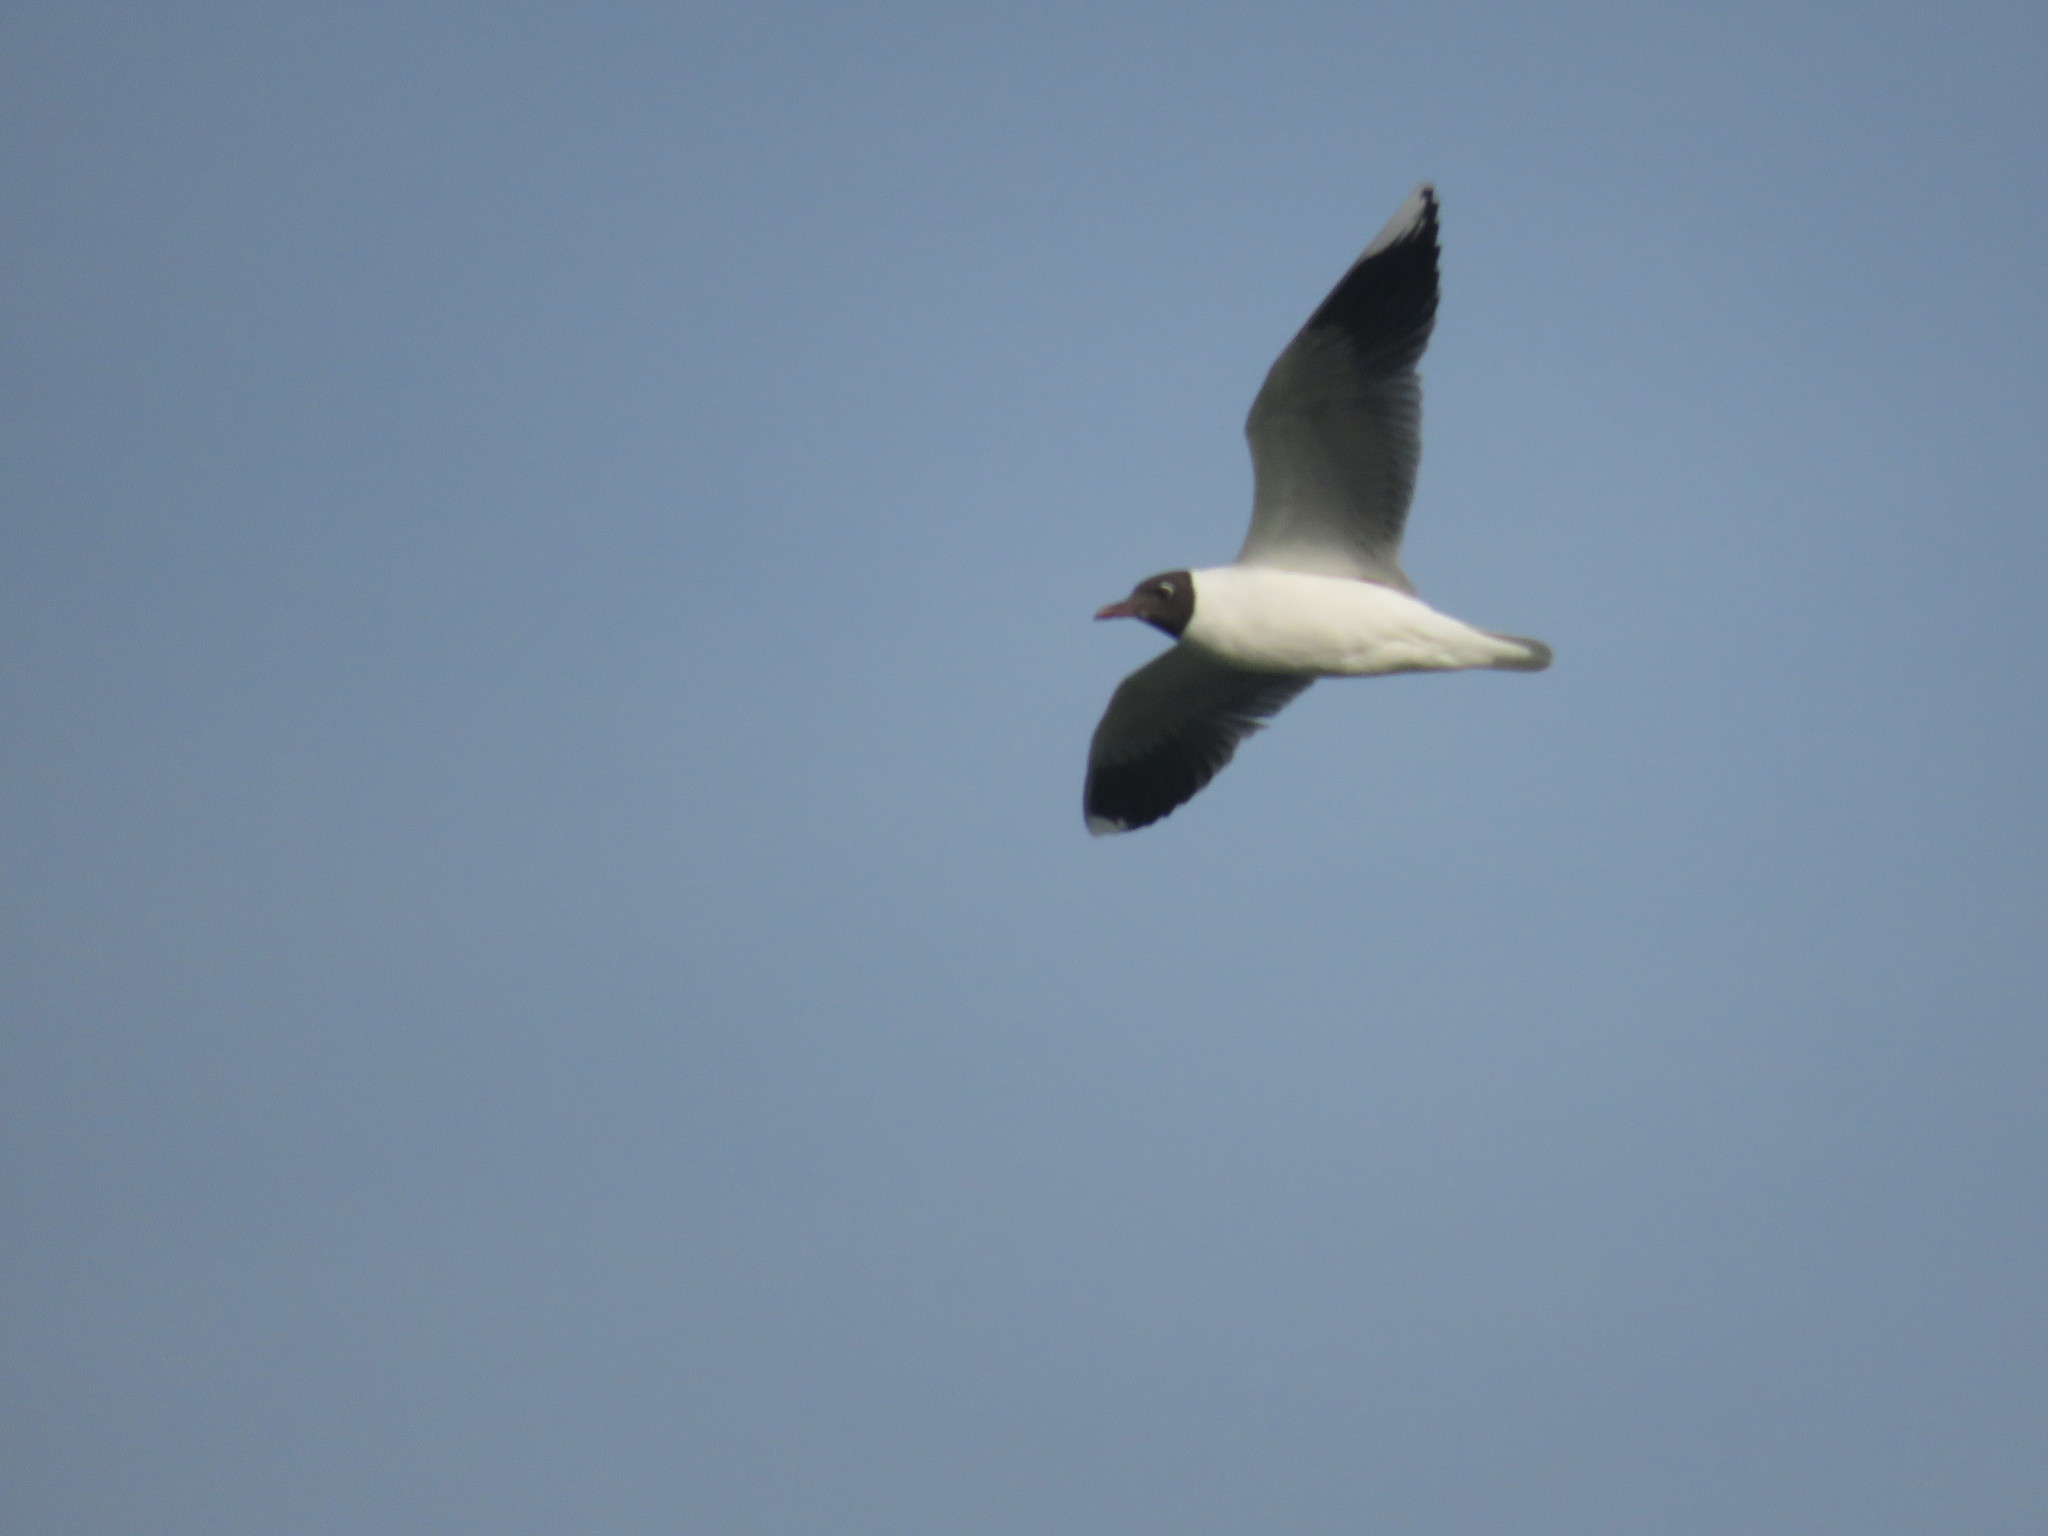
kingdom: Animalia
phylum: Chordata
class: Aves
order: Charadriiformes
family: Laridae
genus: Chroicocephalus
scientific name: Chroicocephalus maculipennis
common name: Brown-hooded gull
